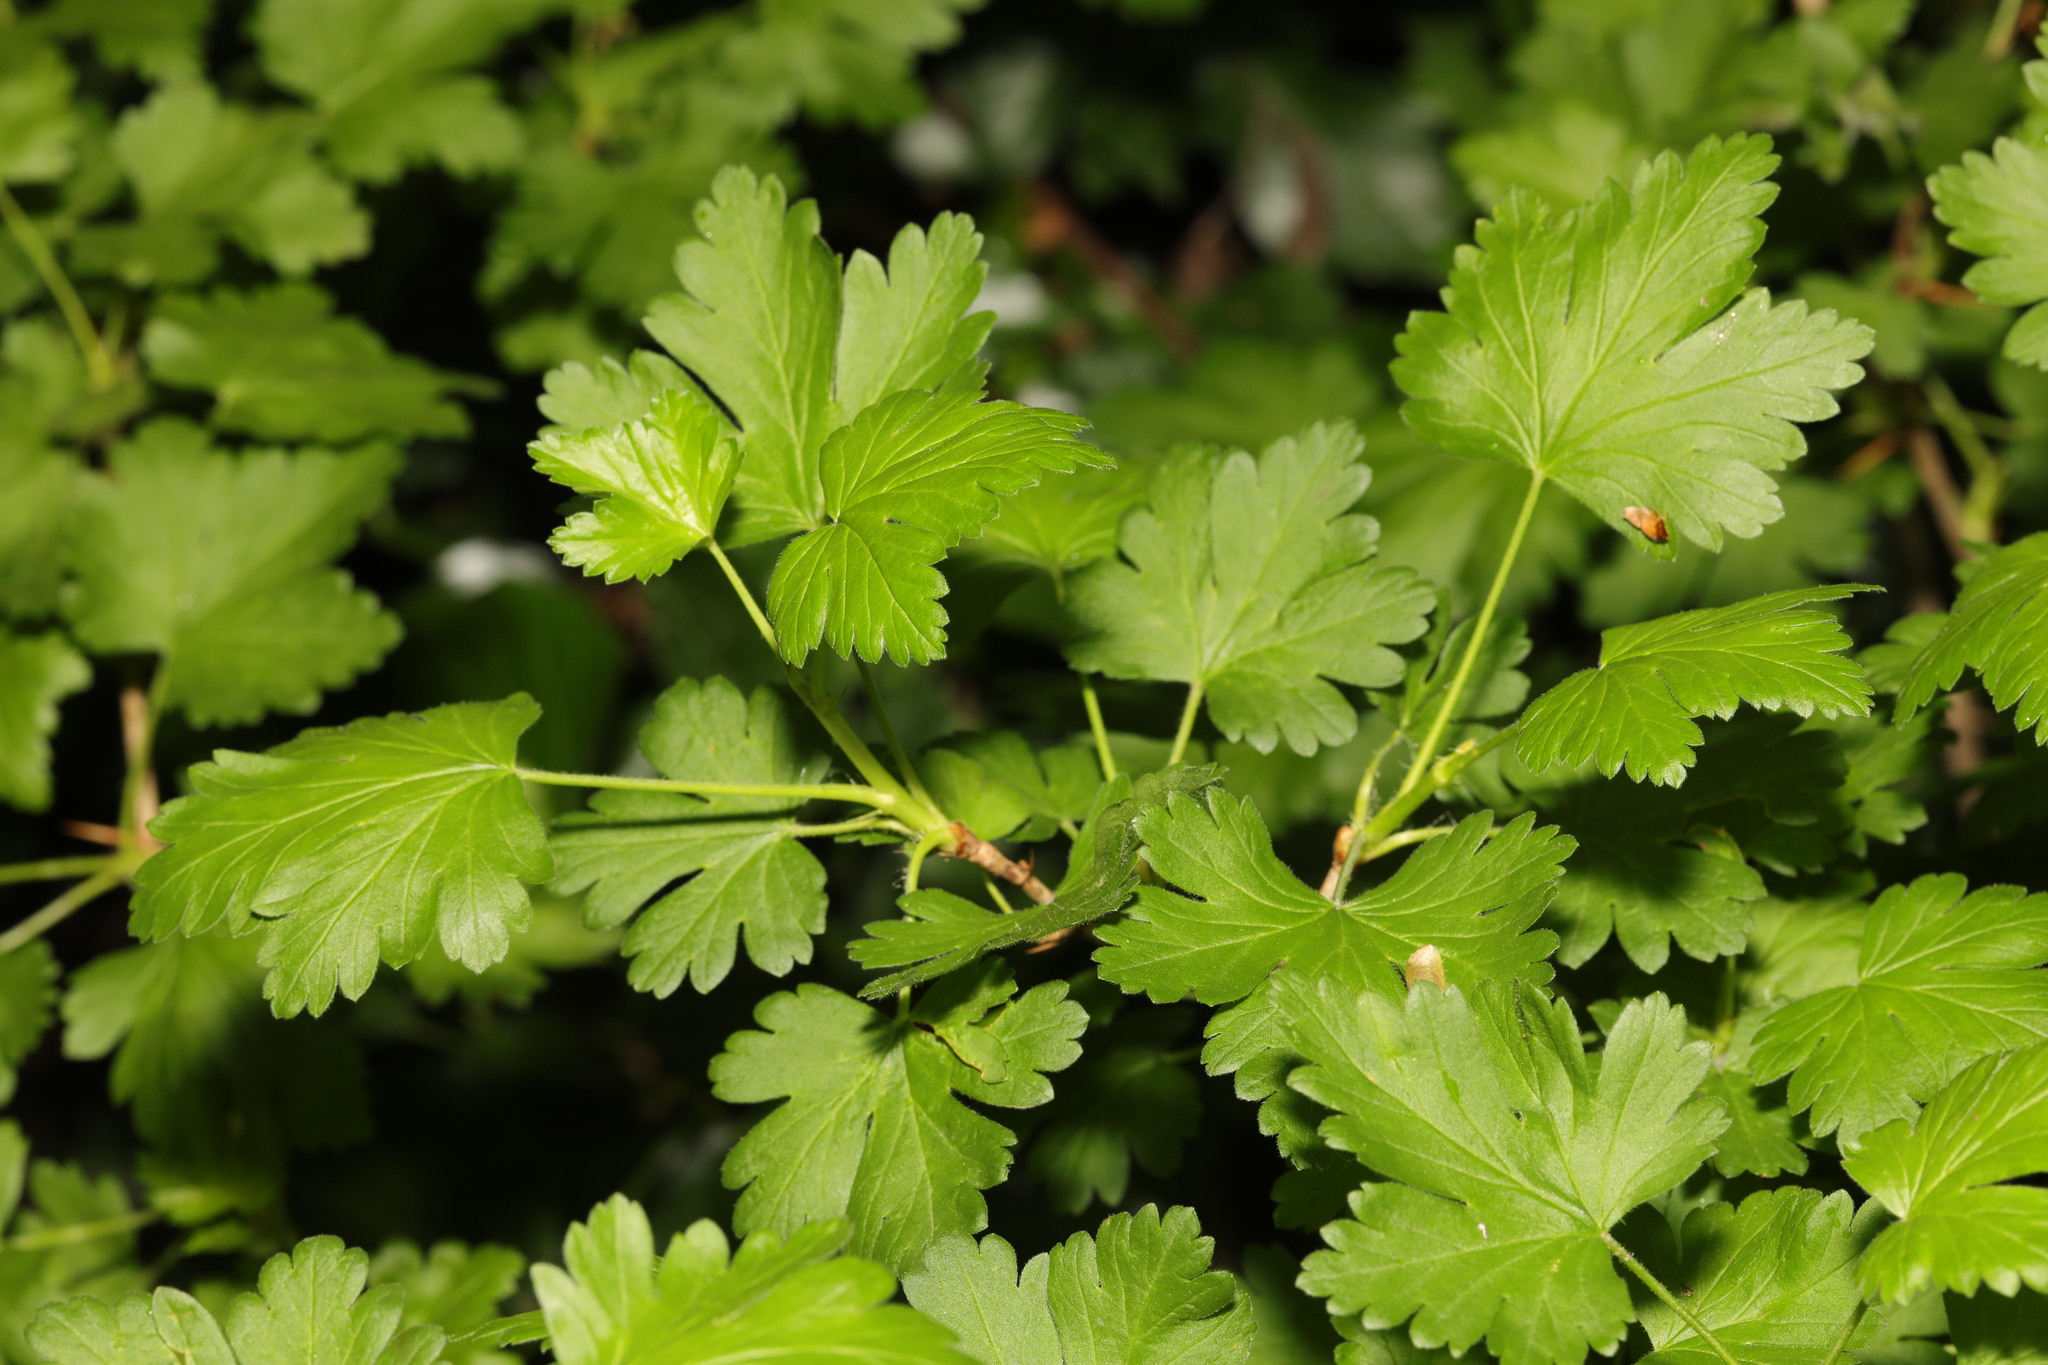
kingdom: Plantae
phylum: Tracheophyta
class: Magnoliopsida
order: Saxifragales
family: Grossulariaceae
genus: Ribes
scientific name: Ribes uva-crispa
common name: Gooseberry
